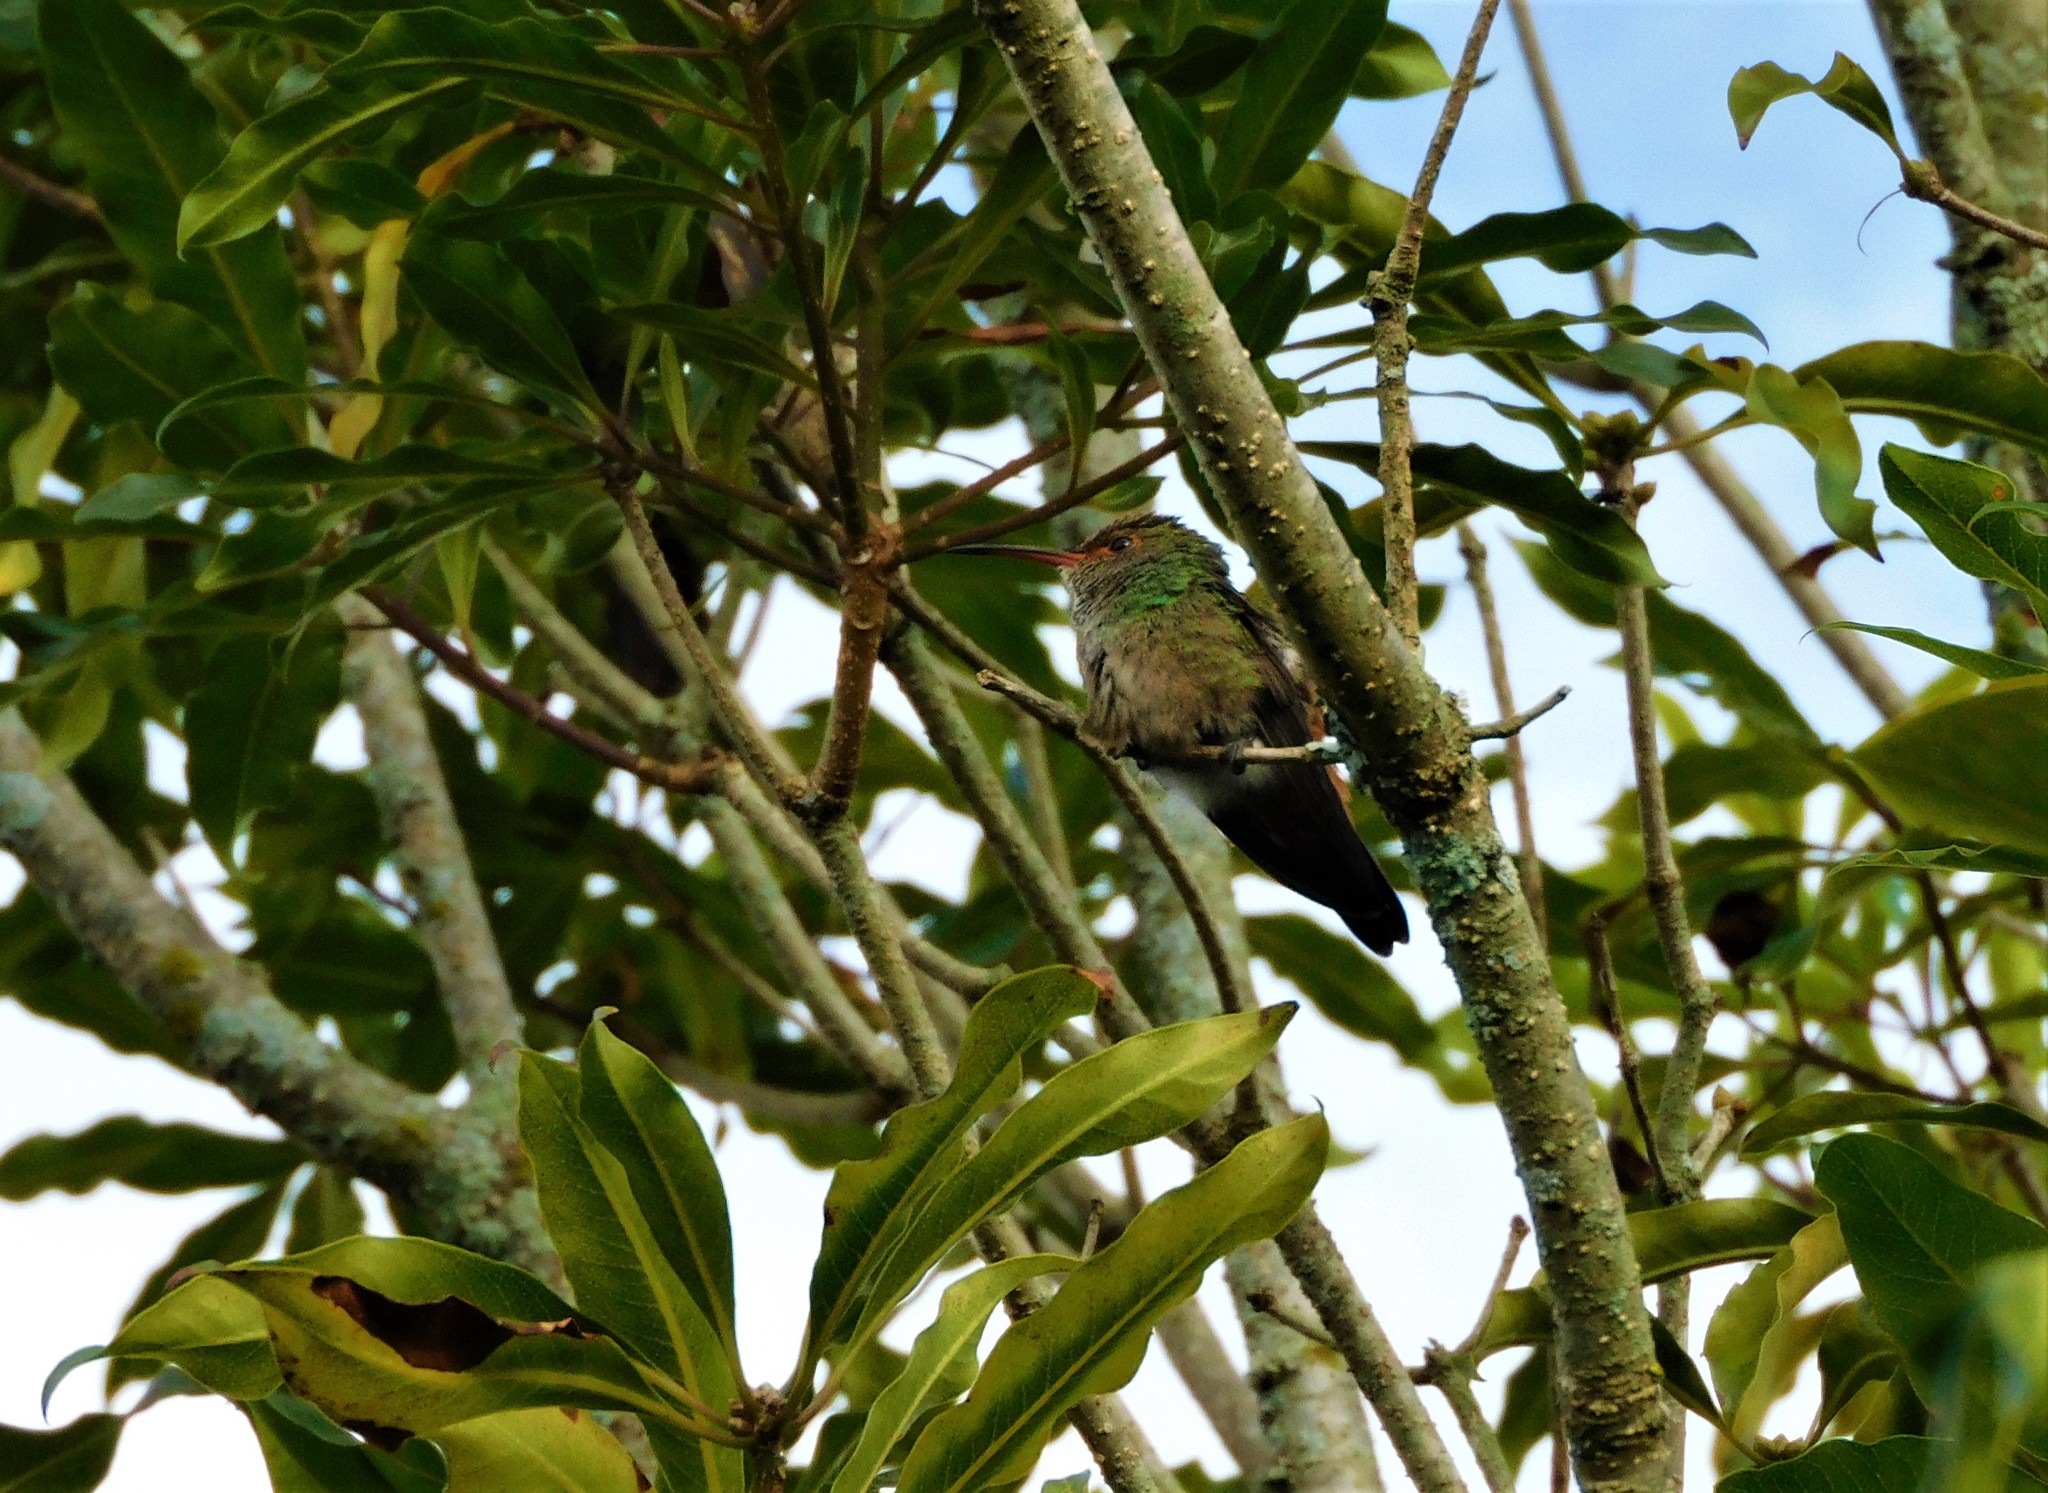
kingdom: Animalia
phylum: Chordata
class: Aves
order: Apodiformes
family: Trochilidae
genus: Amazilia
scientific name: Amazilia tzacatl
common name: Rufous-tailed hummingbird
